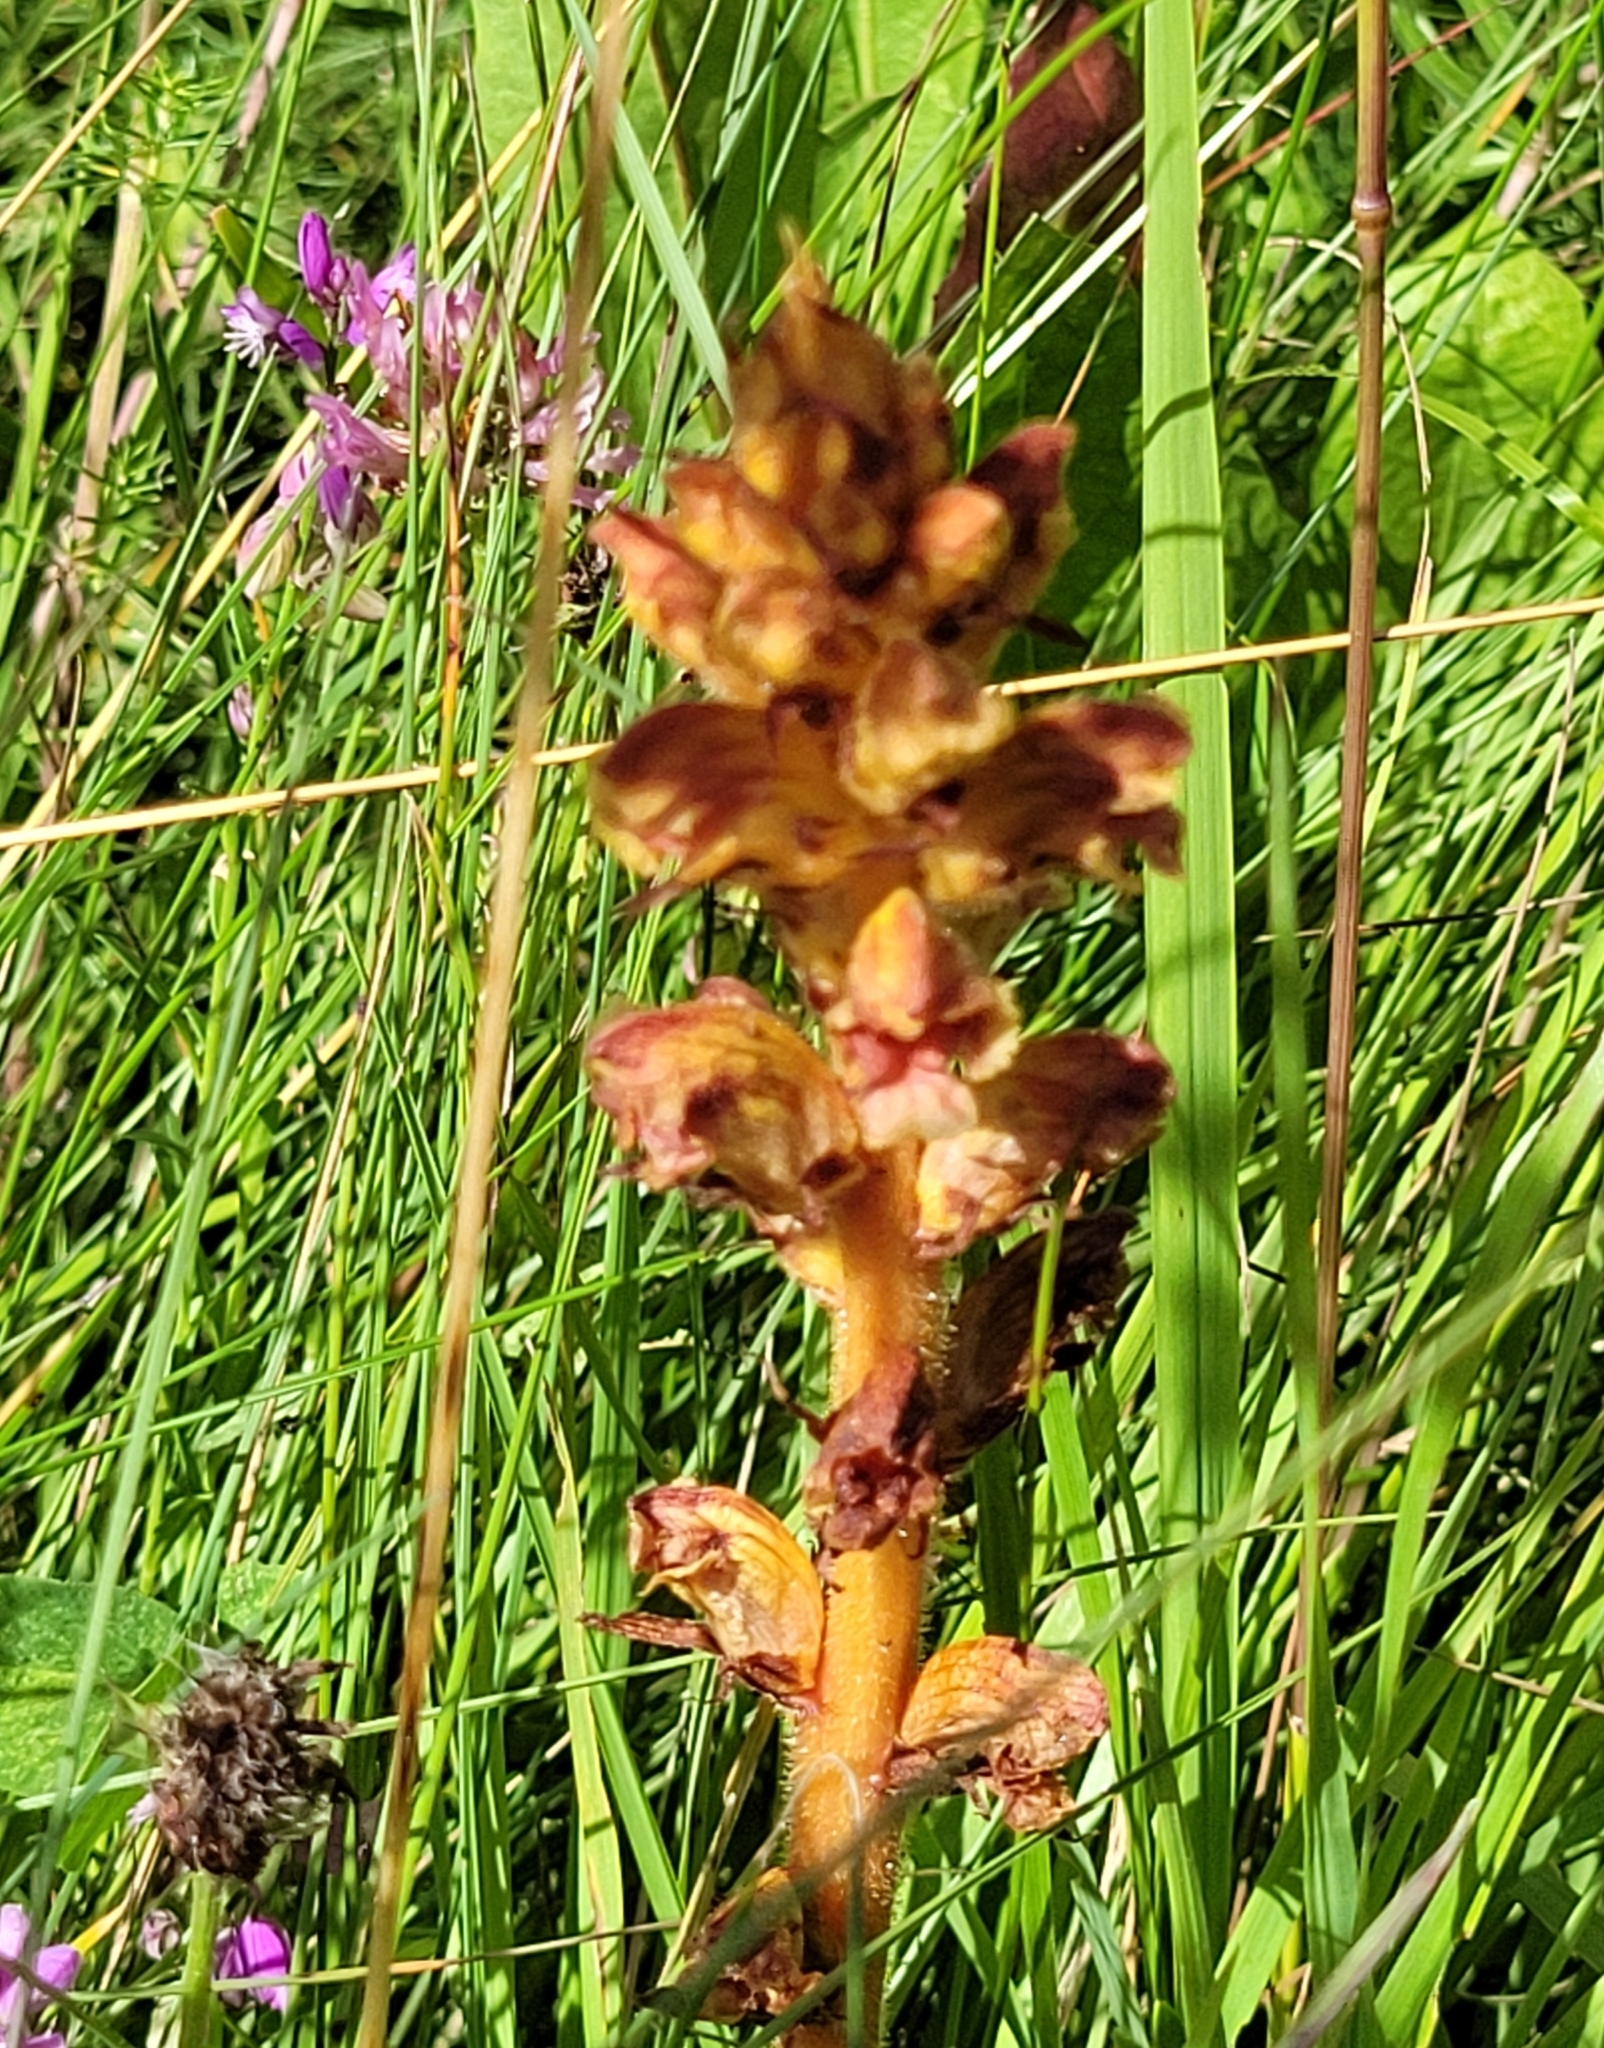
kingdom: Plantae
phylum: Tracheophyta
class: Magnoliopsida
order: Lamiales
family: Orobanchaceae
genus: Orobanche
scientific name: Orobanche gracilis
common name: Slender broomrape
